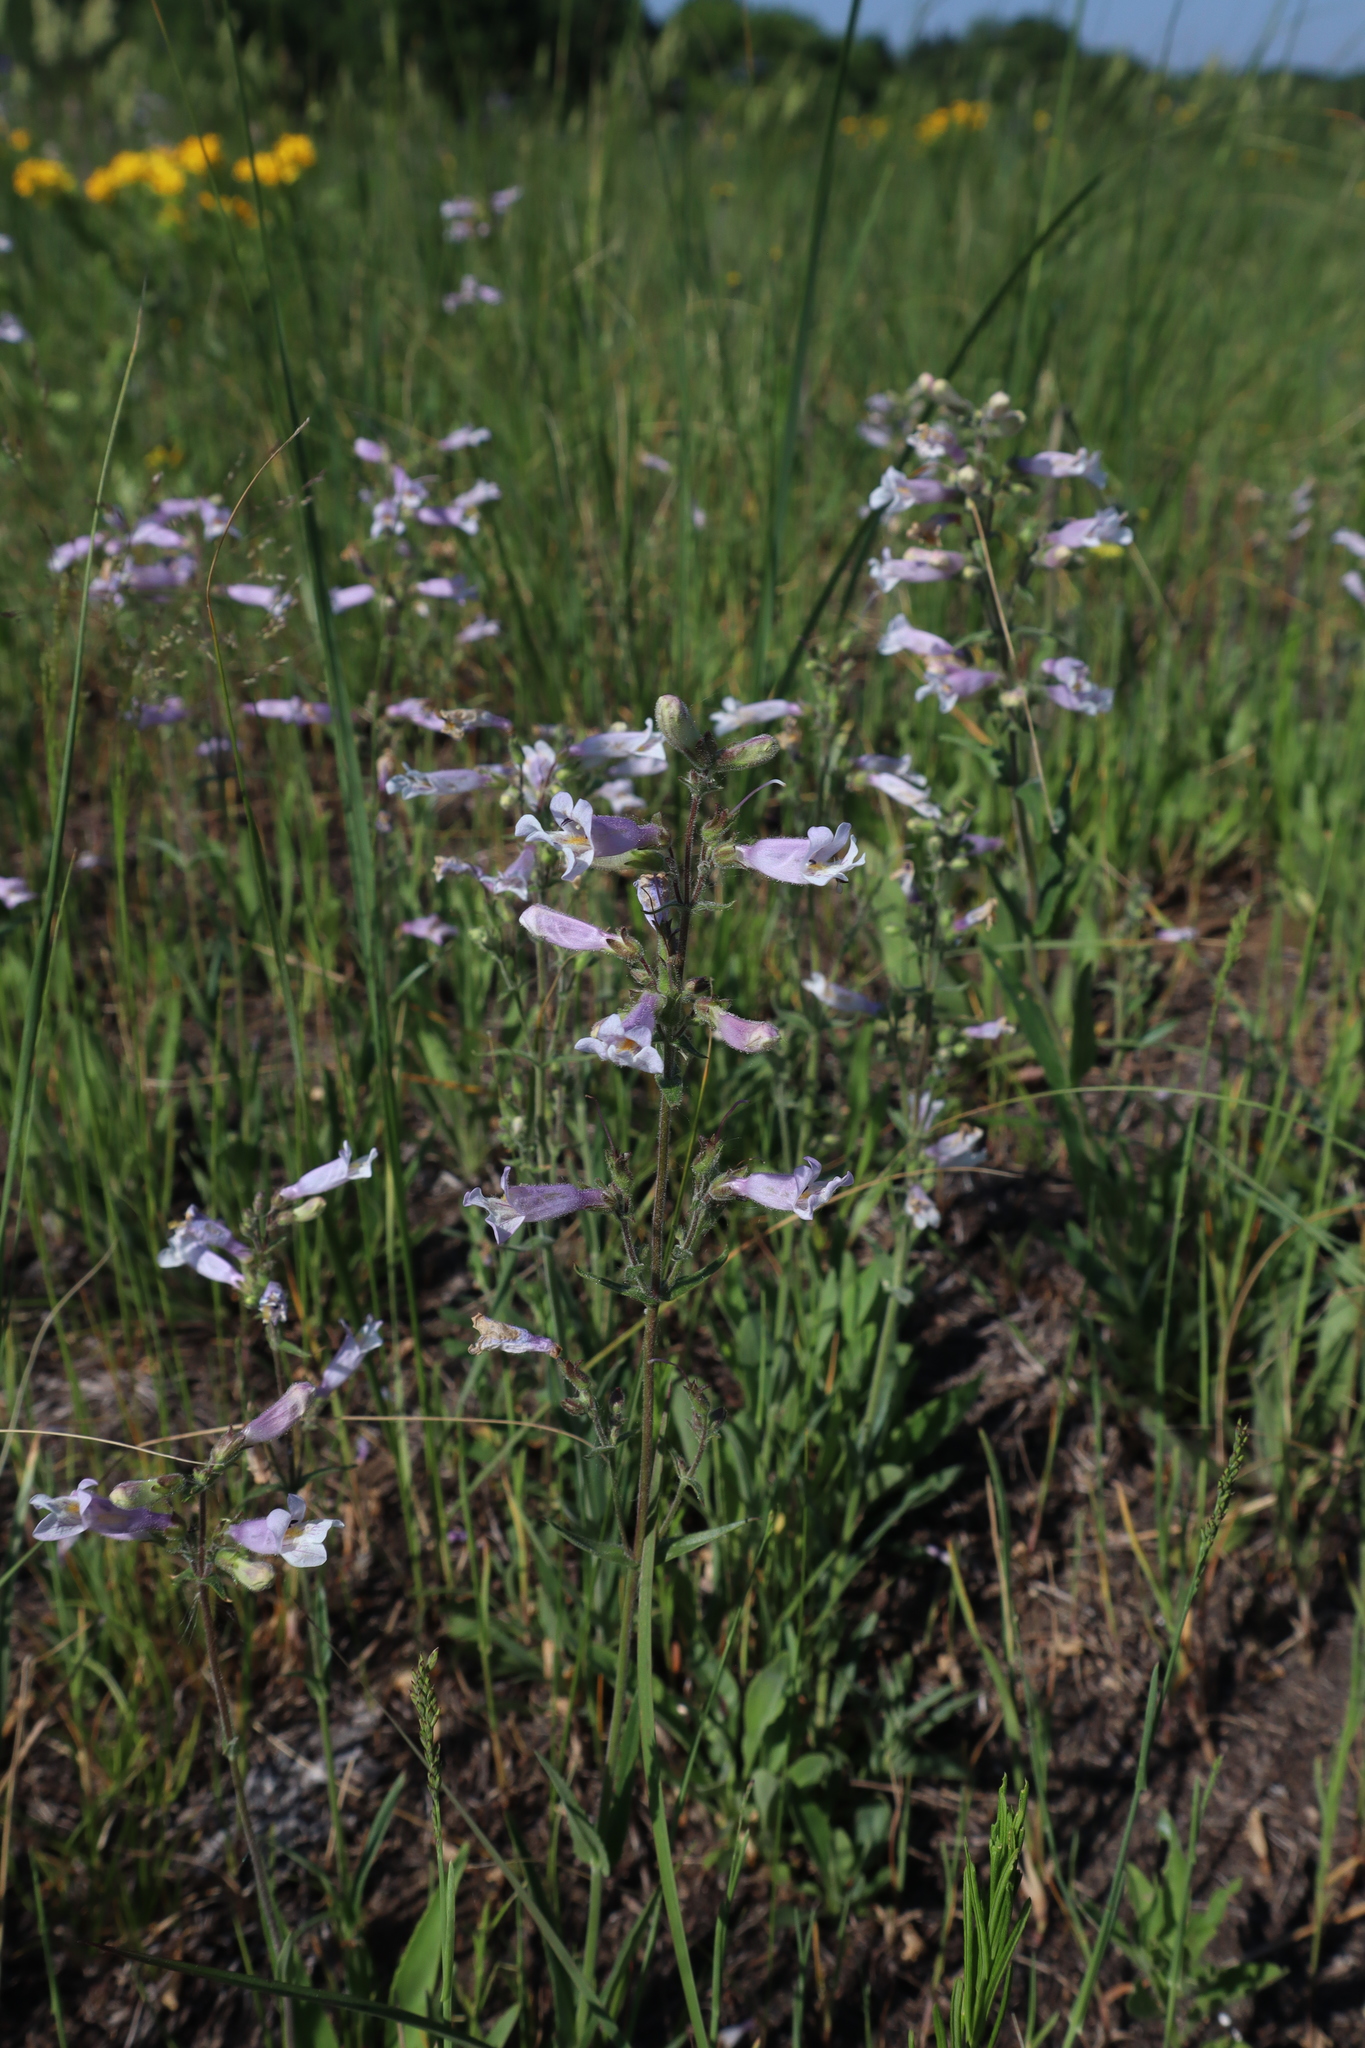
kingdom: Plantae
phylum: Tracheophyta
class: Magnoliopsida
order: Lamiales
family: Plantaginaceae
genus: Penstemon
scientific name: Penstemon gracilis
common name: Slender beardtongue
